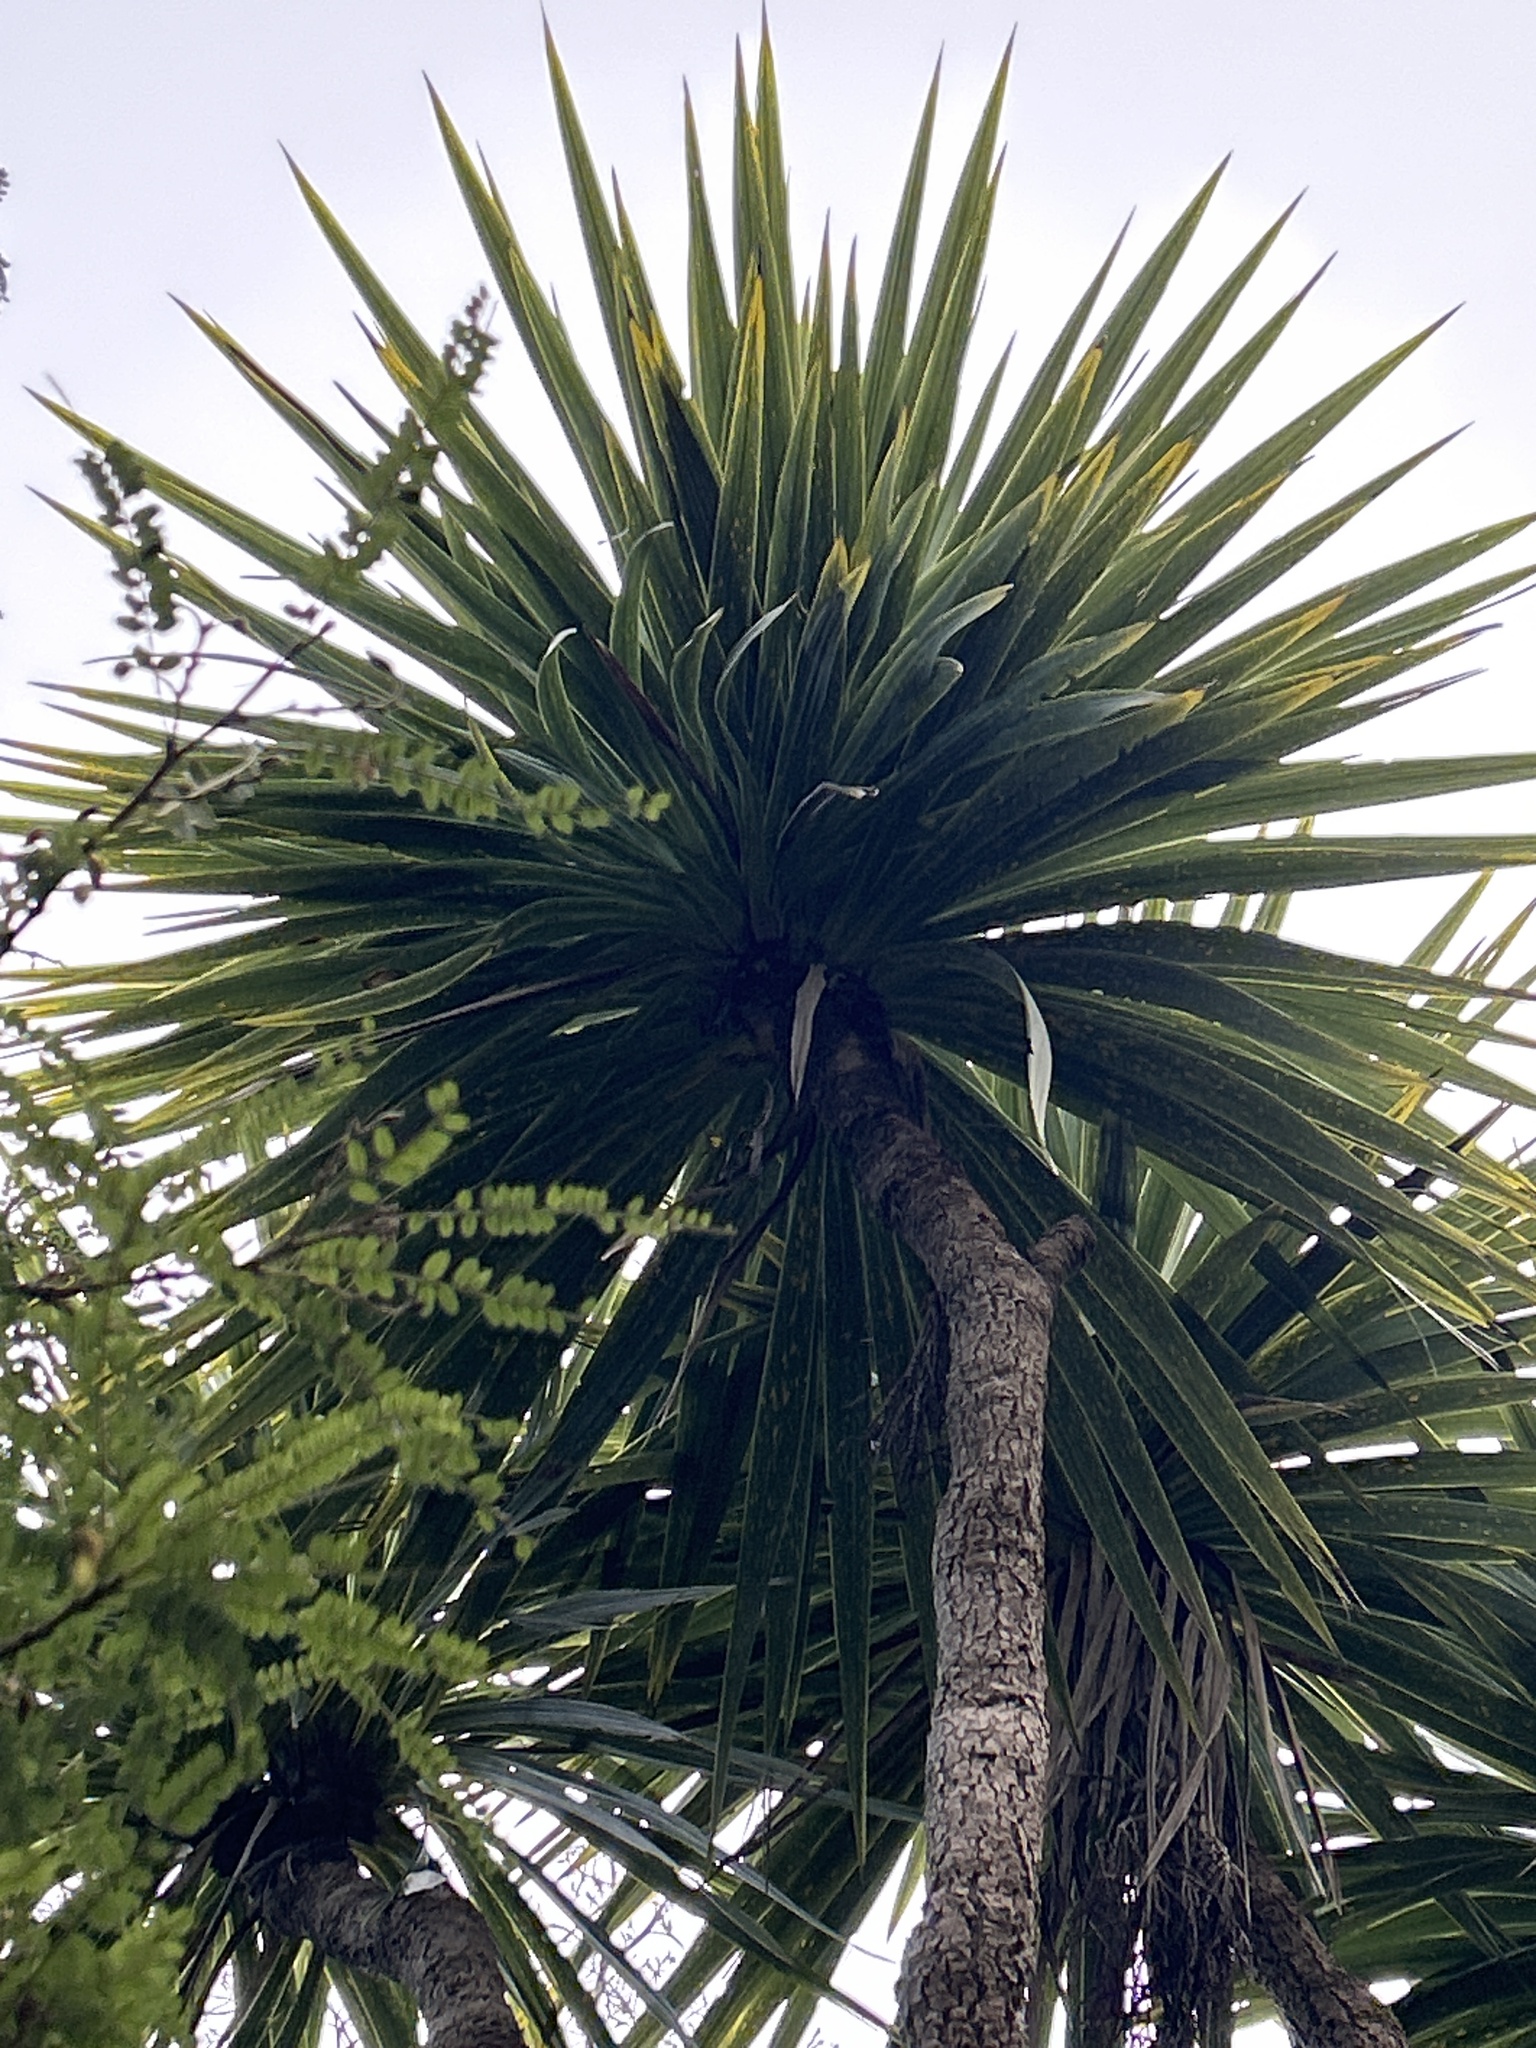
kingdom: Plantae
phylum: Tracheophyta
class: Liliopsida
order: Asparagales
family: Asparagaceae
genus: Cordyline
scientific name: Cordyline australis
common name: Cabbage-palm
